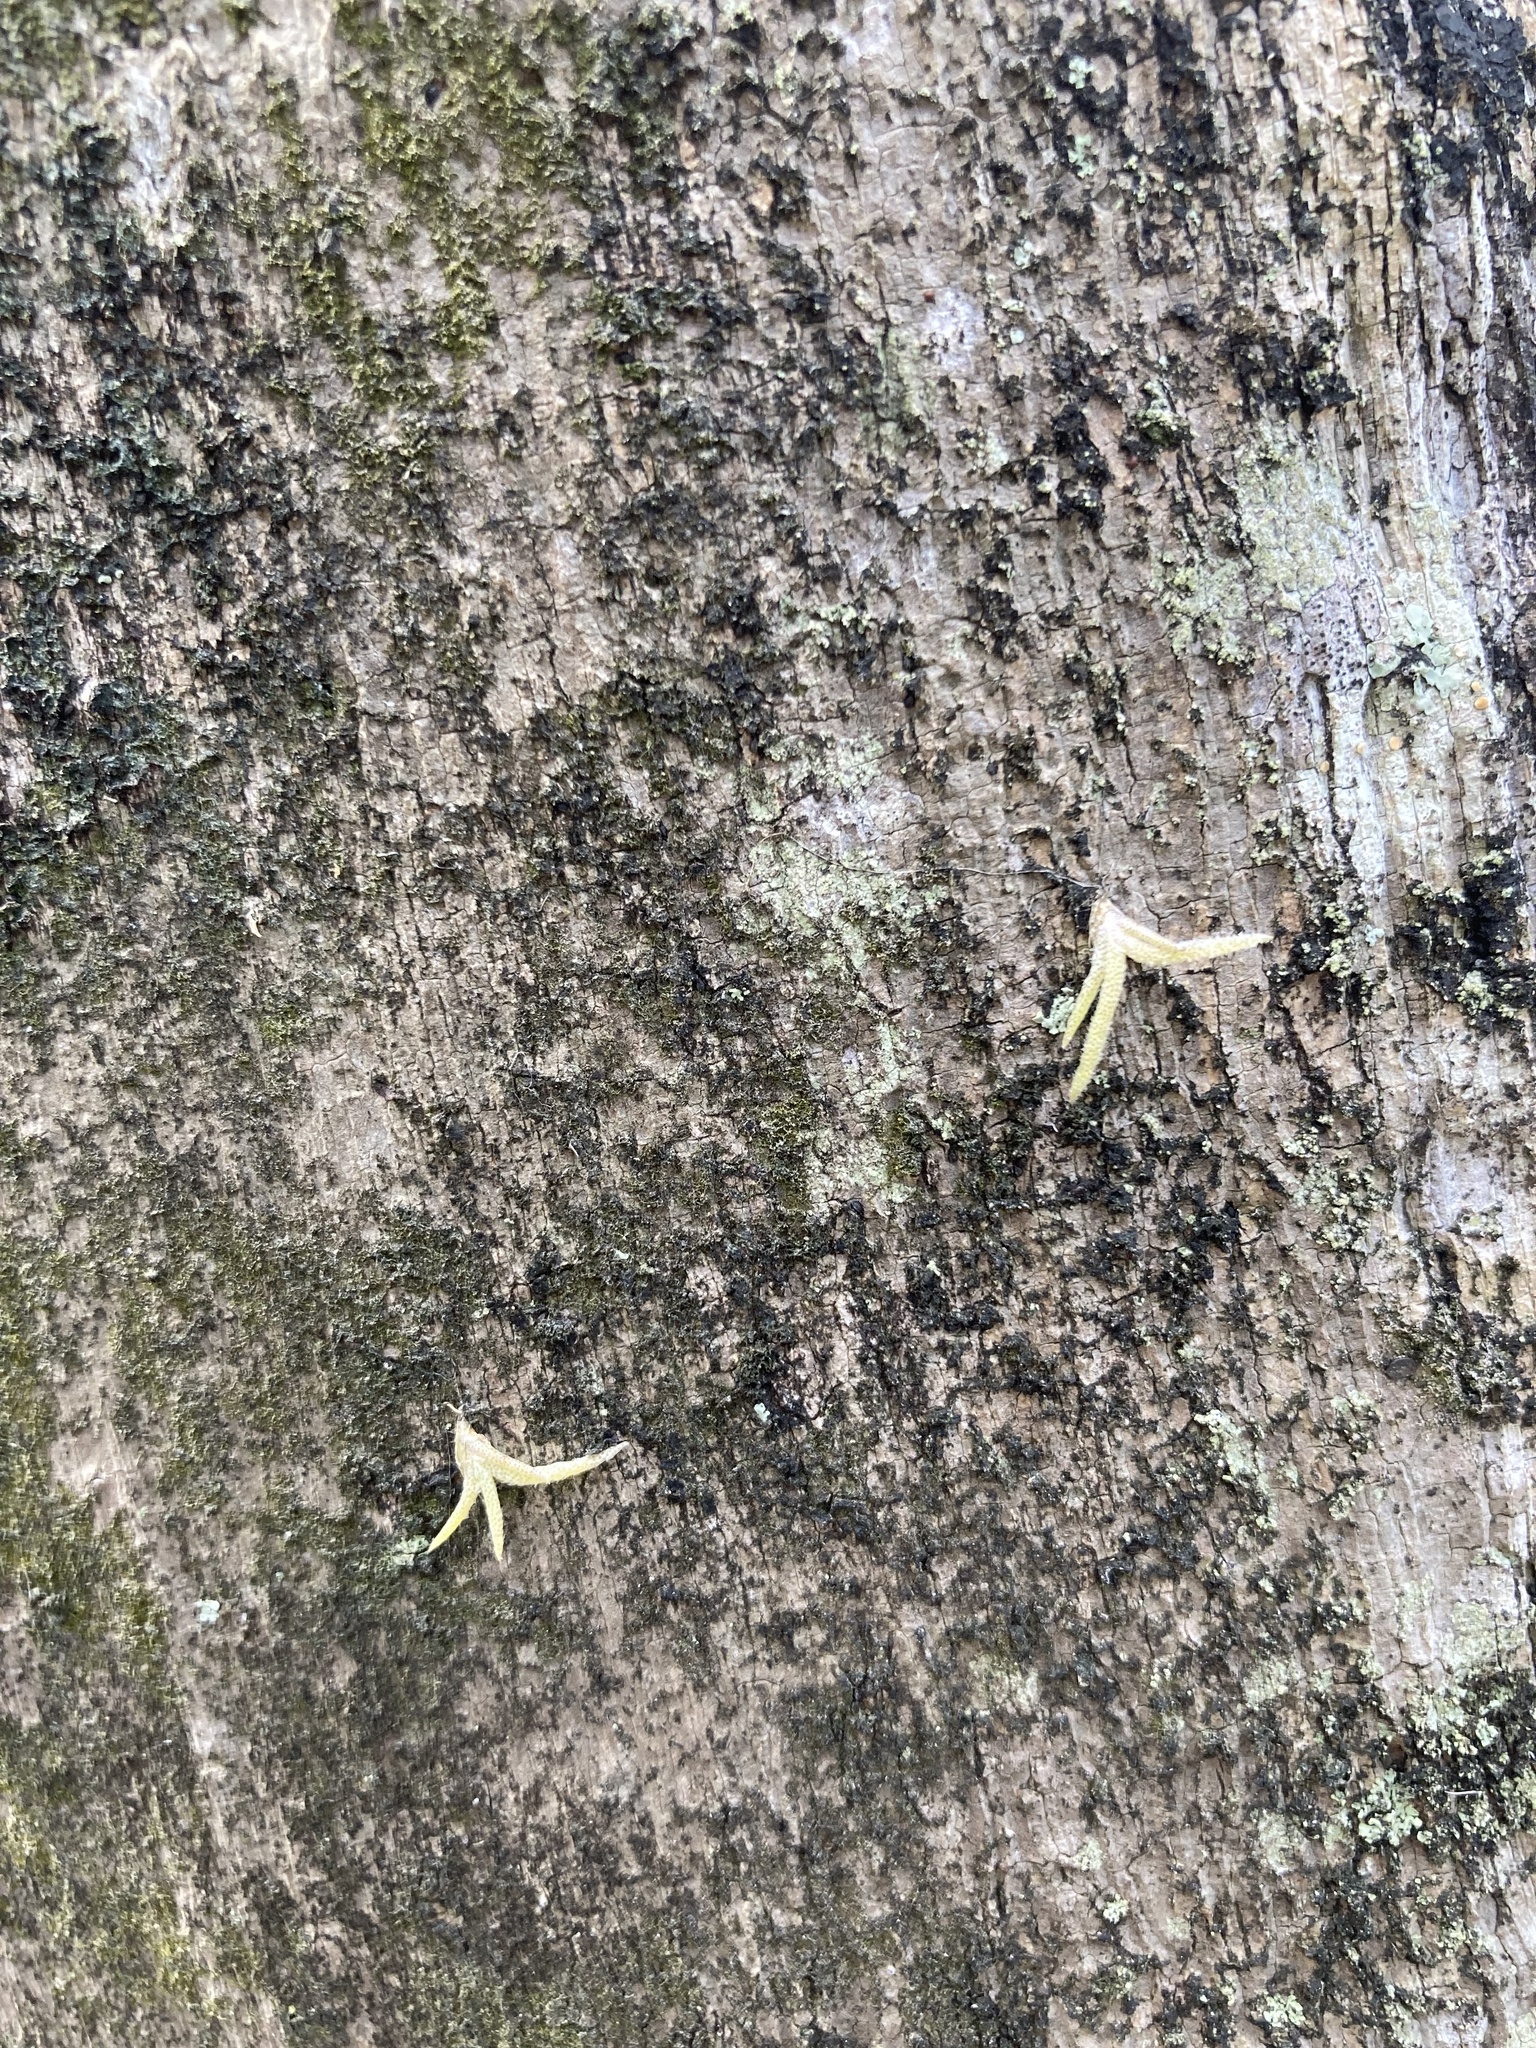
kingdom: Plantae
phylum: Tracheophyta
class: Liliopsida
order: Poales
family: Bromeliaceae
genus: Tillandsia
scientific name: Tillandsia recurvata
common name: Small ballmoss
